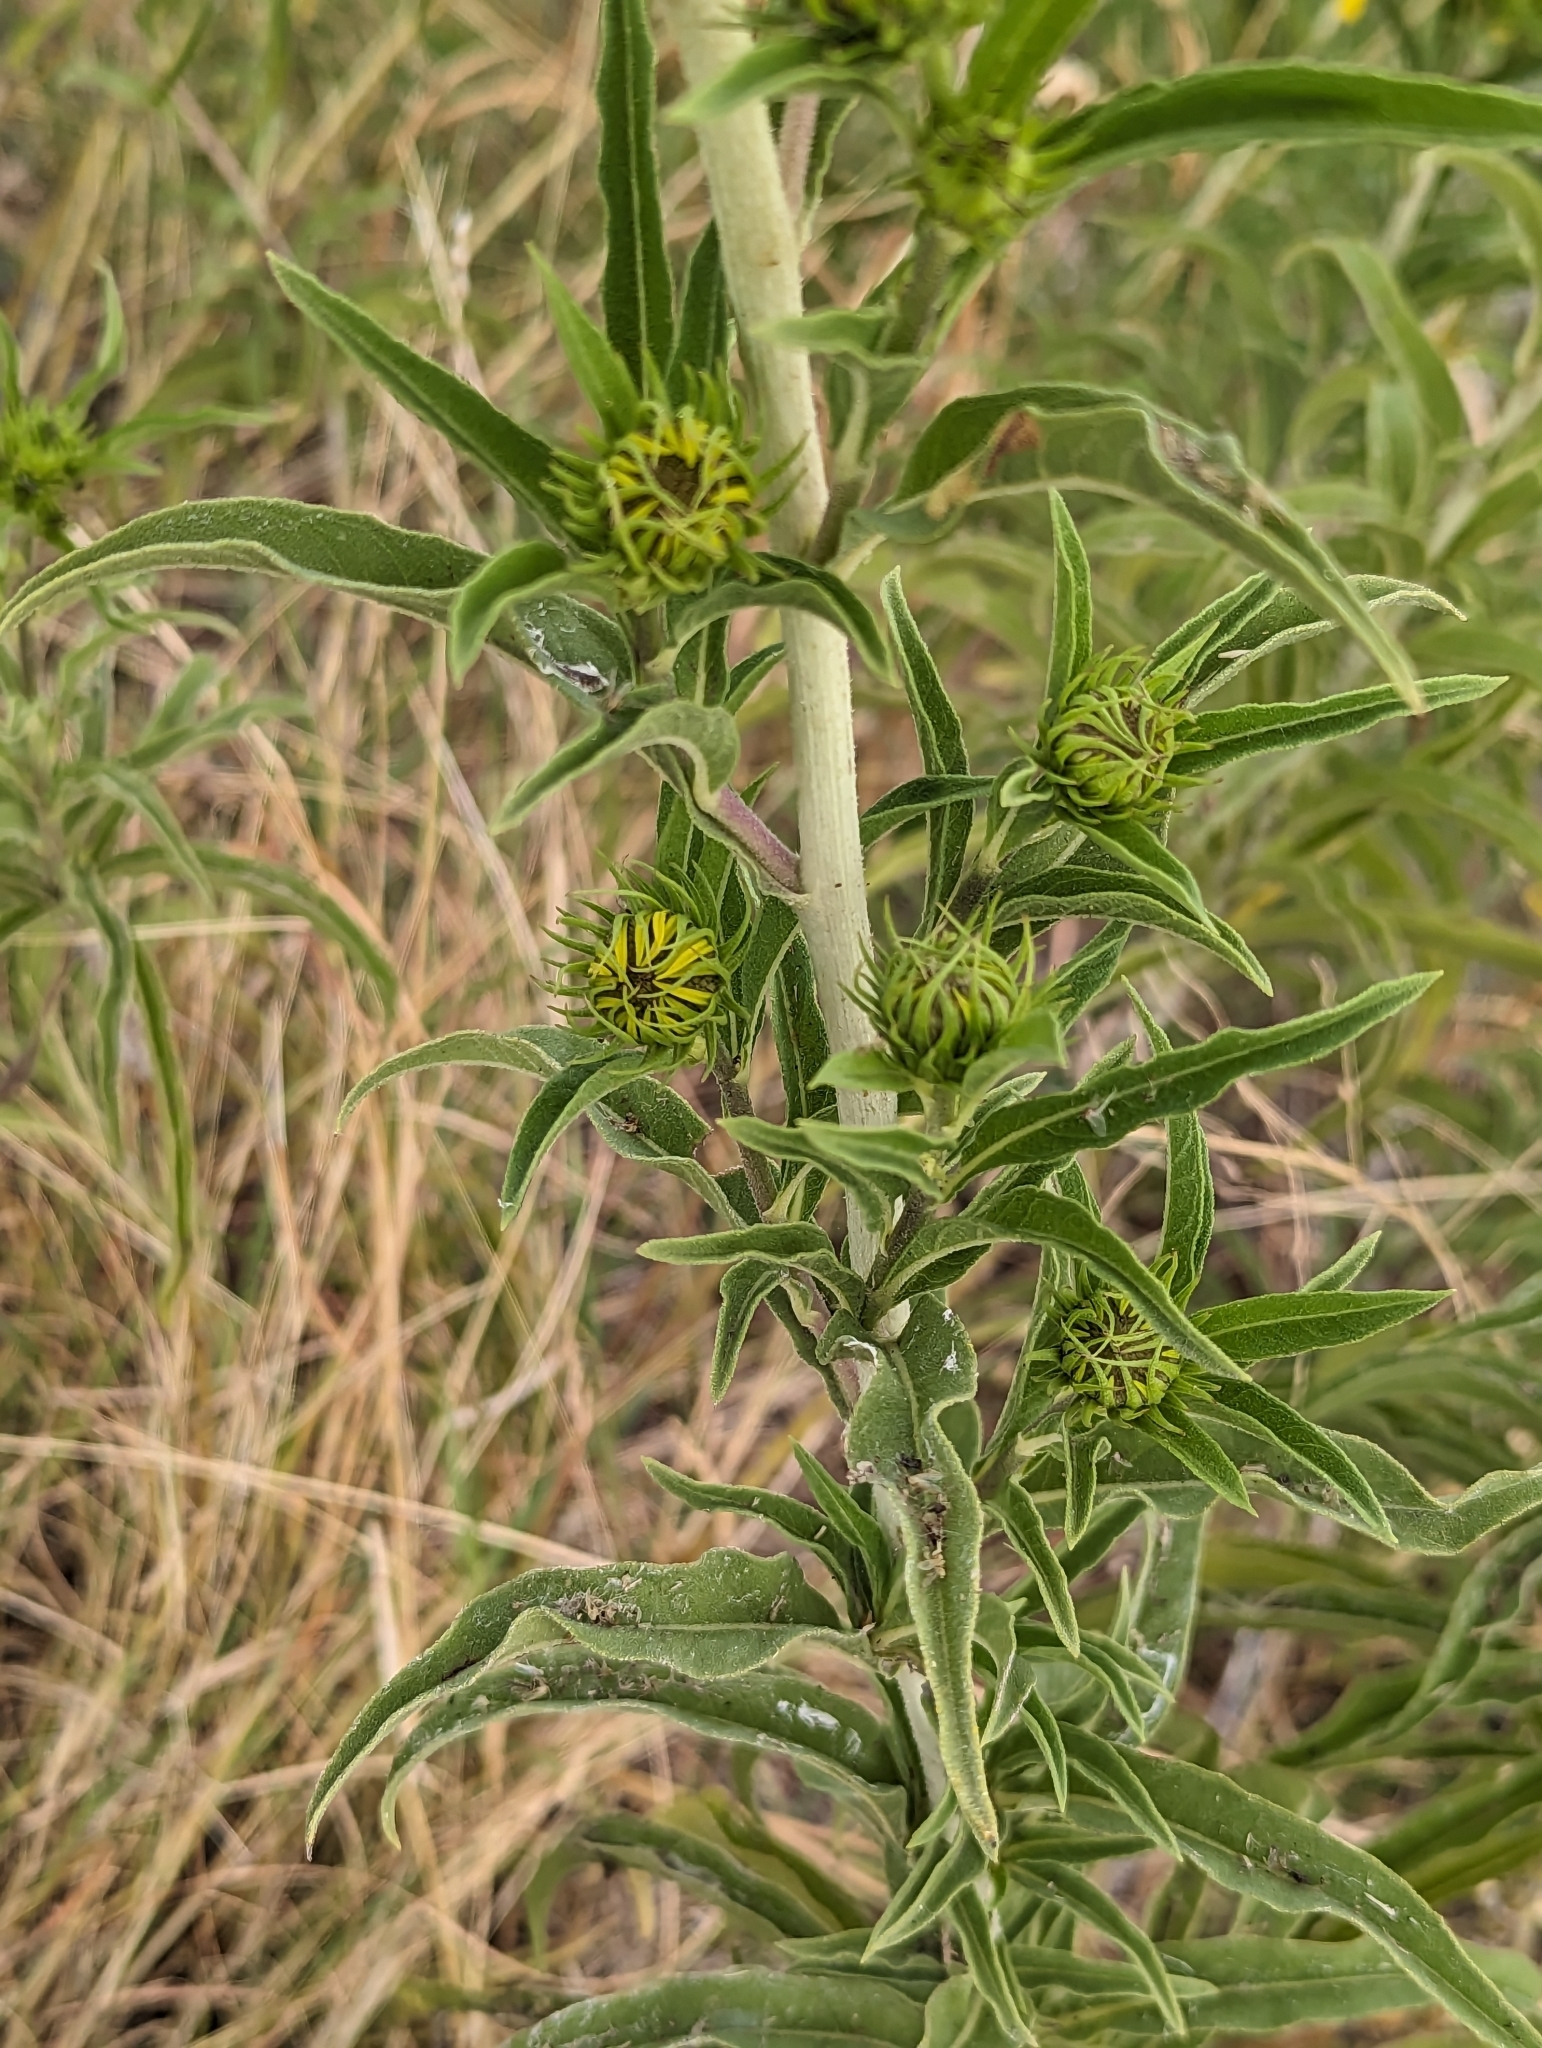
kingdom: Plantae
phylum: Tracheophyta
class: Magnoliopsida
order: Asterales
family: Asteraceae
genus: Helianthus
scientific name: Helianthus maximiliani
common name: Maximilian's sunflower
